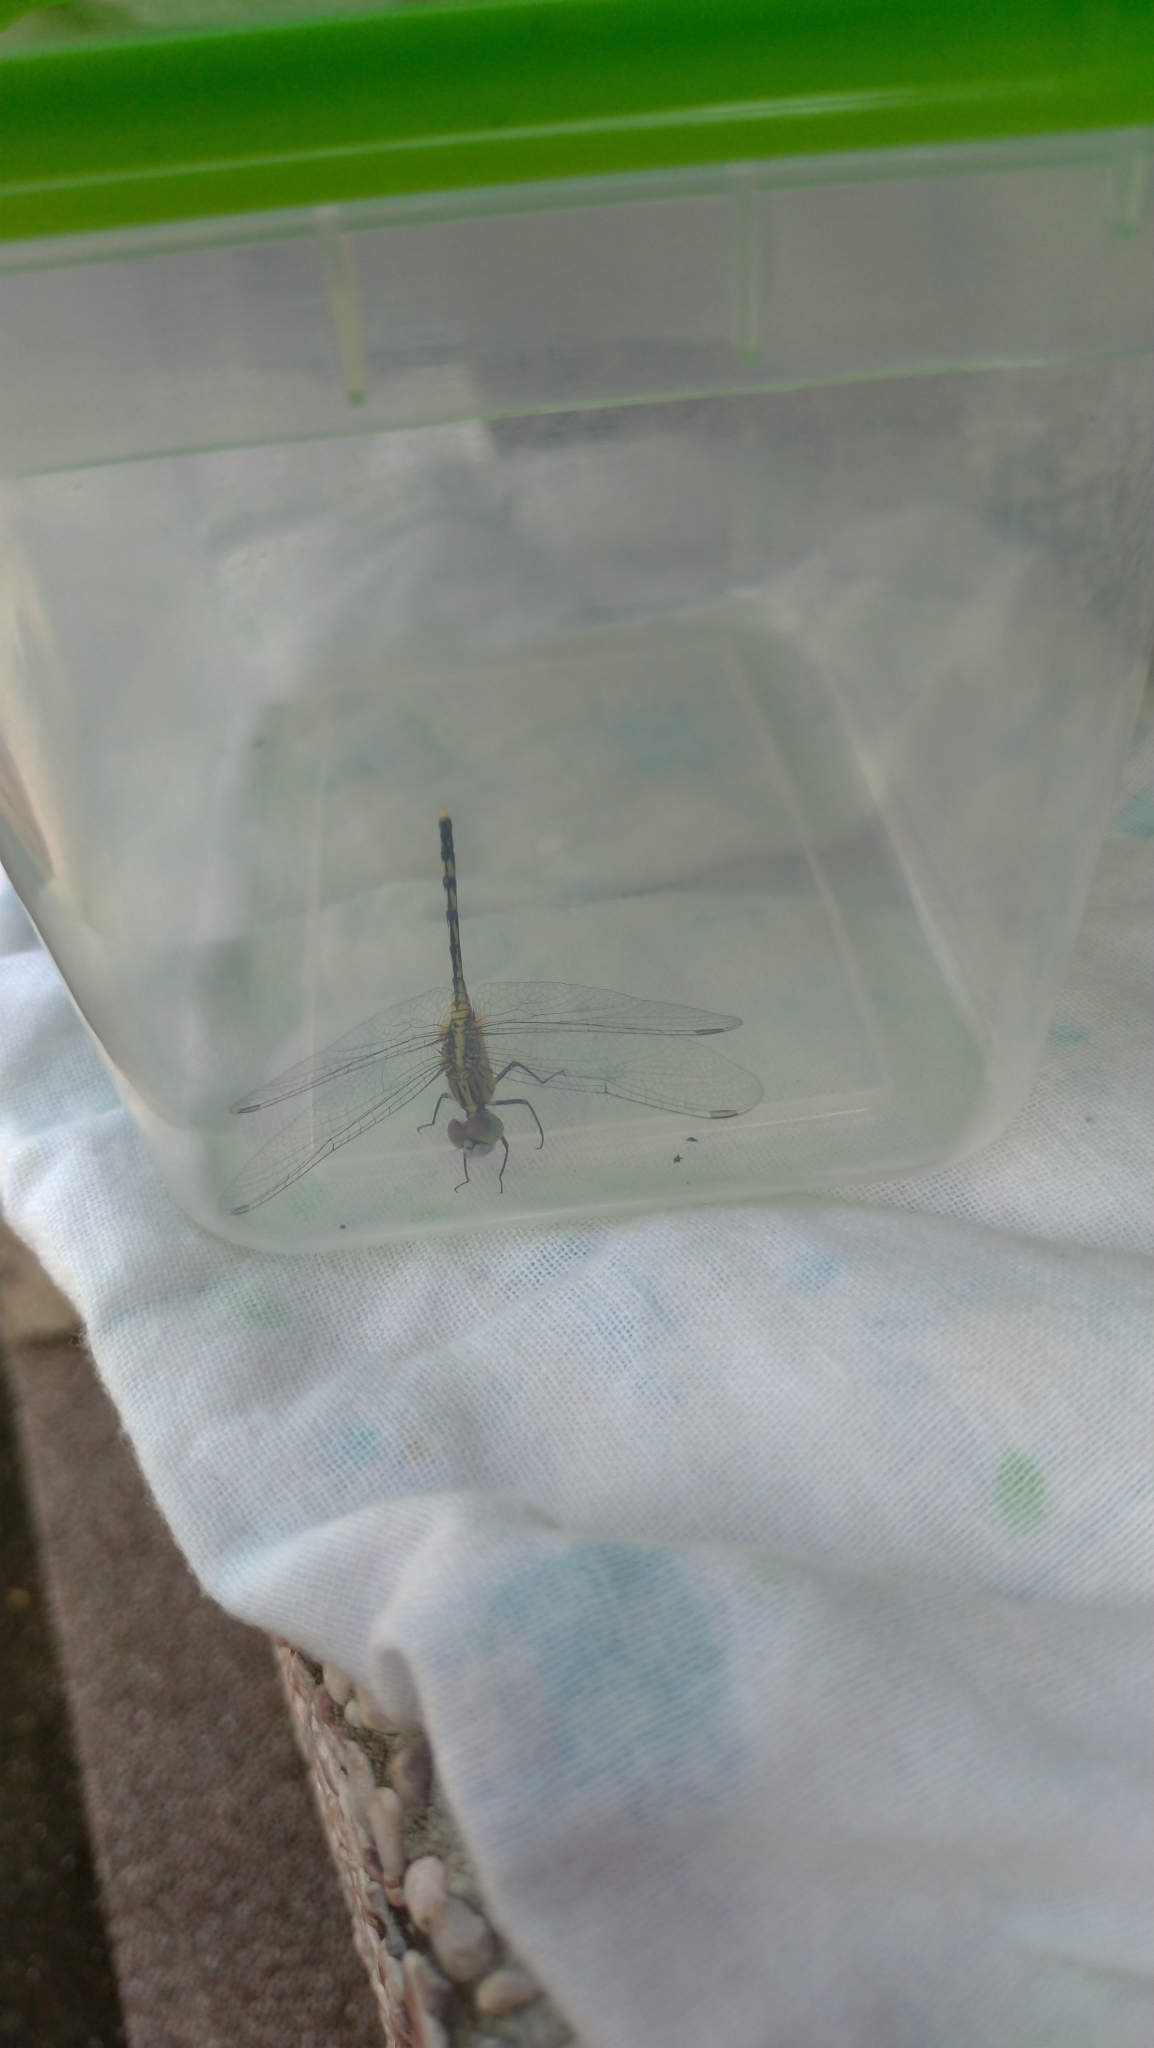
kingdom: Animalia
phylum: Arthropoda
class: Insecta
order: Odonata
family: Libellulidae
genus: Diplacodes
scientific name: Diplacodes trivialis
